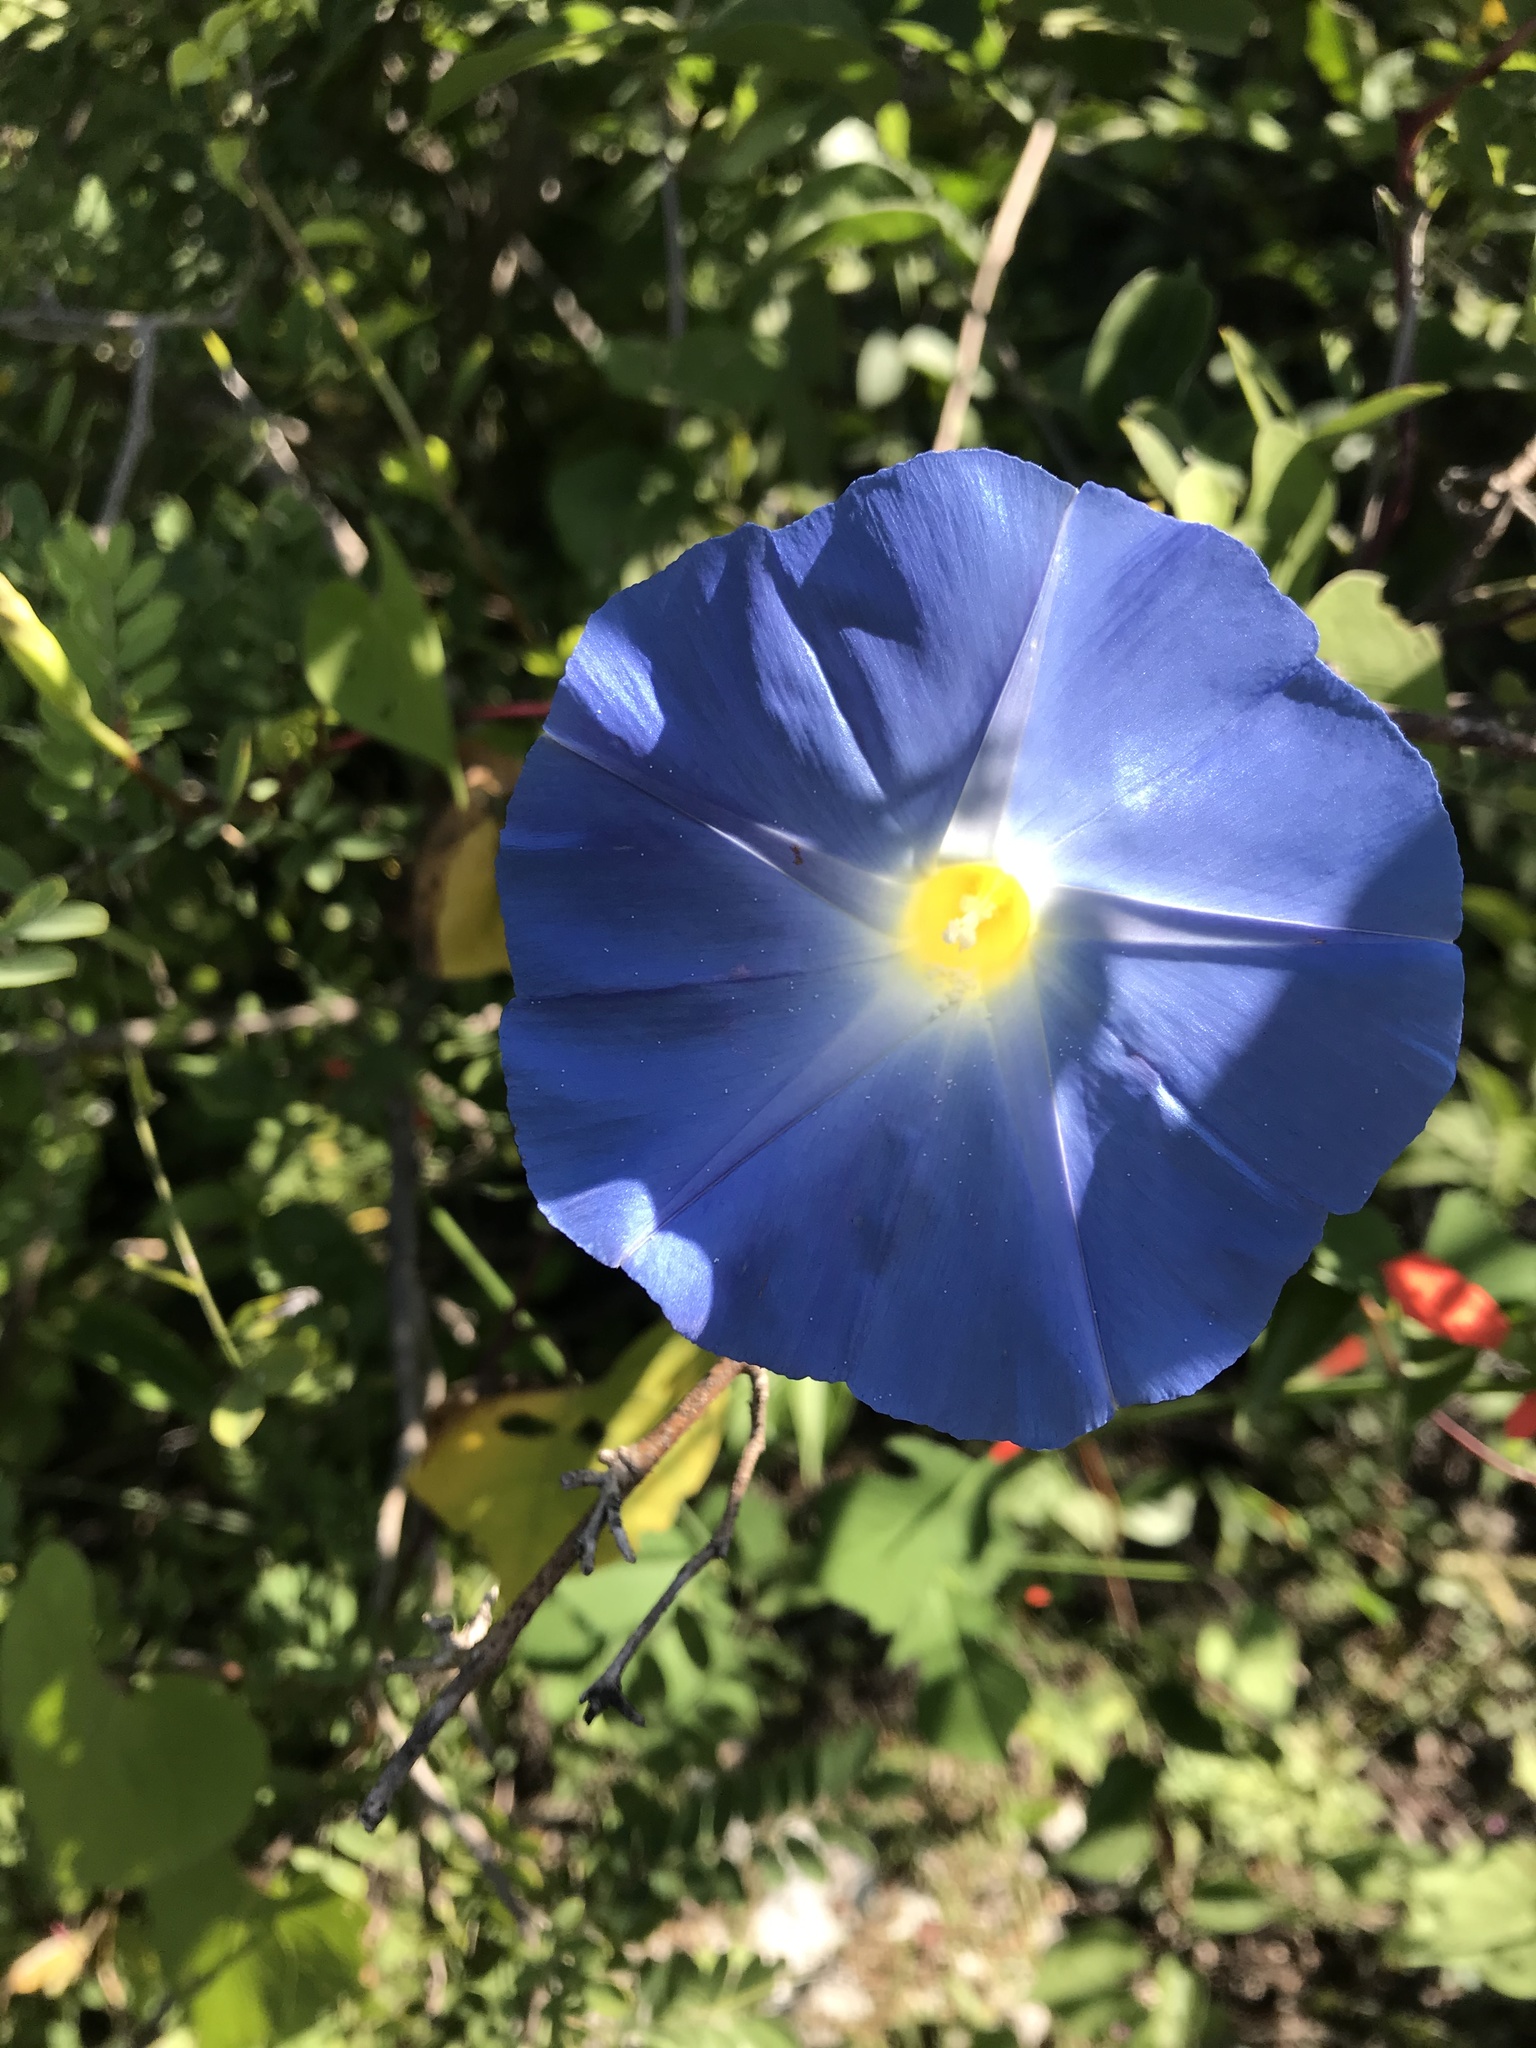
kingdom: Plantae
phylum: Tracheophyta
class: Magnoliopsida
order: Solanales
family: Convolvulaceae
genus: Ipomoea
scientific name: Ipomoea tricolor
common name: Morning-glory
